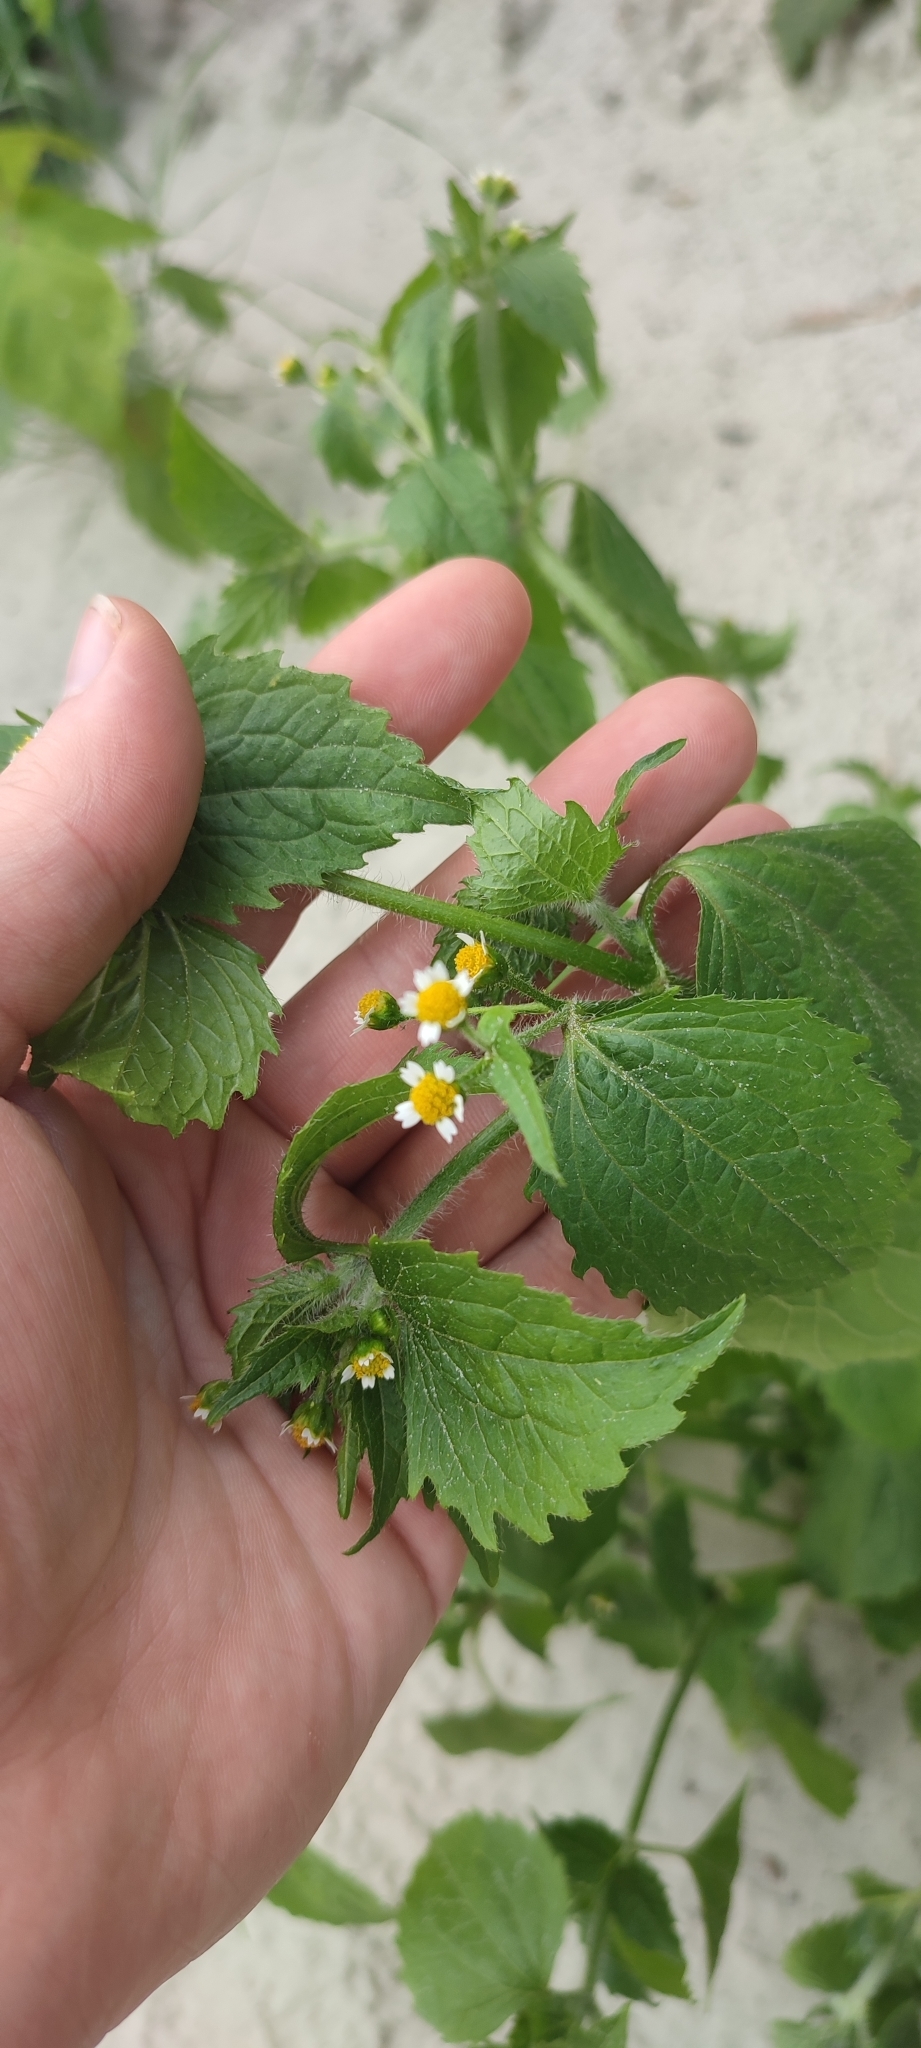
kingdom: Plantae
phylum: Tracheophyta
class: Magnoliopsida
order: Asterales
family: Asteraceae
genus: Galinsoga
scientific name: Galinsoga quadriradiata
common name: Shaggy soldier
